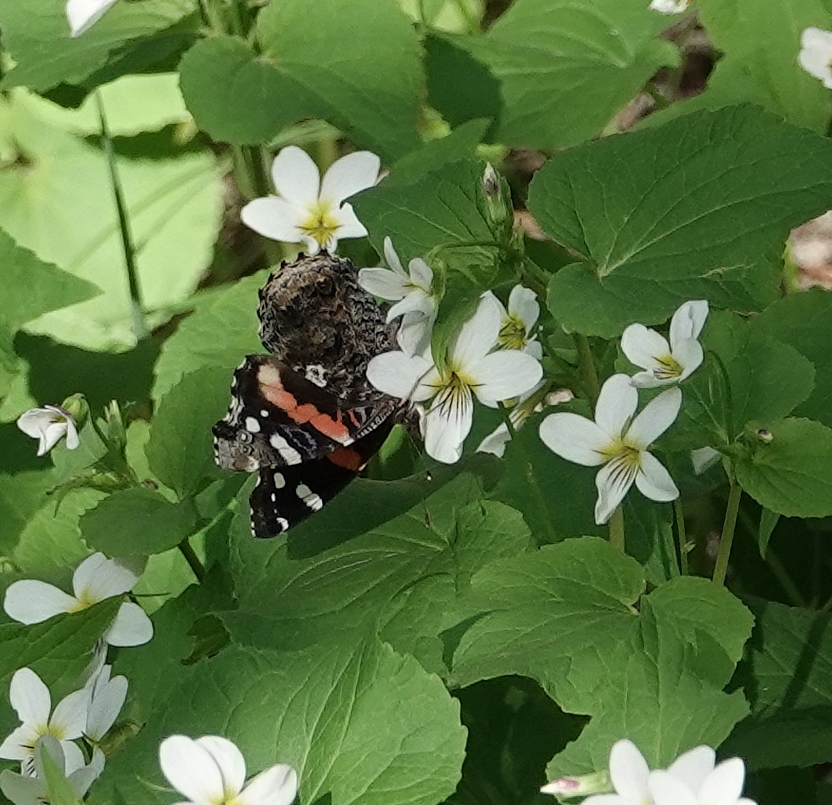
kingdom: Animalia
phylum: Arthropoda
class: Insecta
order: Lepidoptera
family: Nymphalidae
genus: Vanessa
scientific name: Vanessa atalanta
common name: Red admiral
